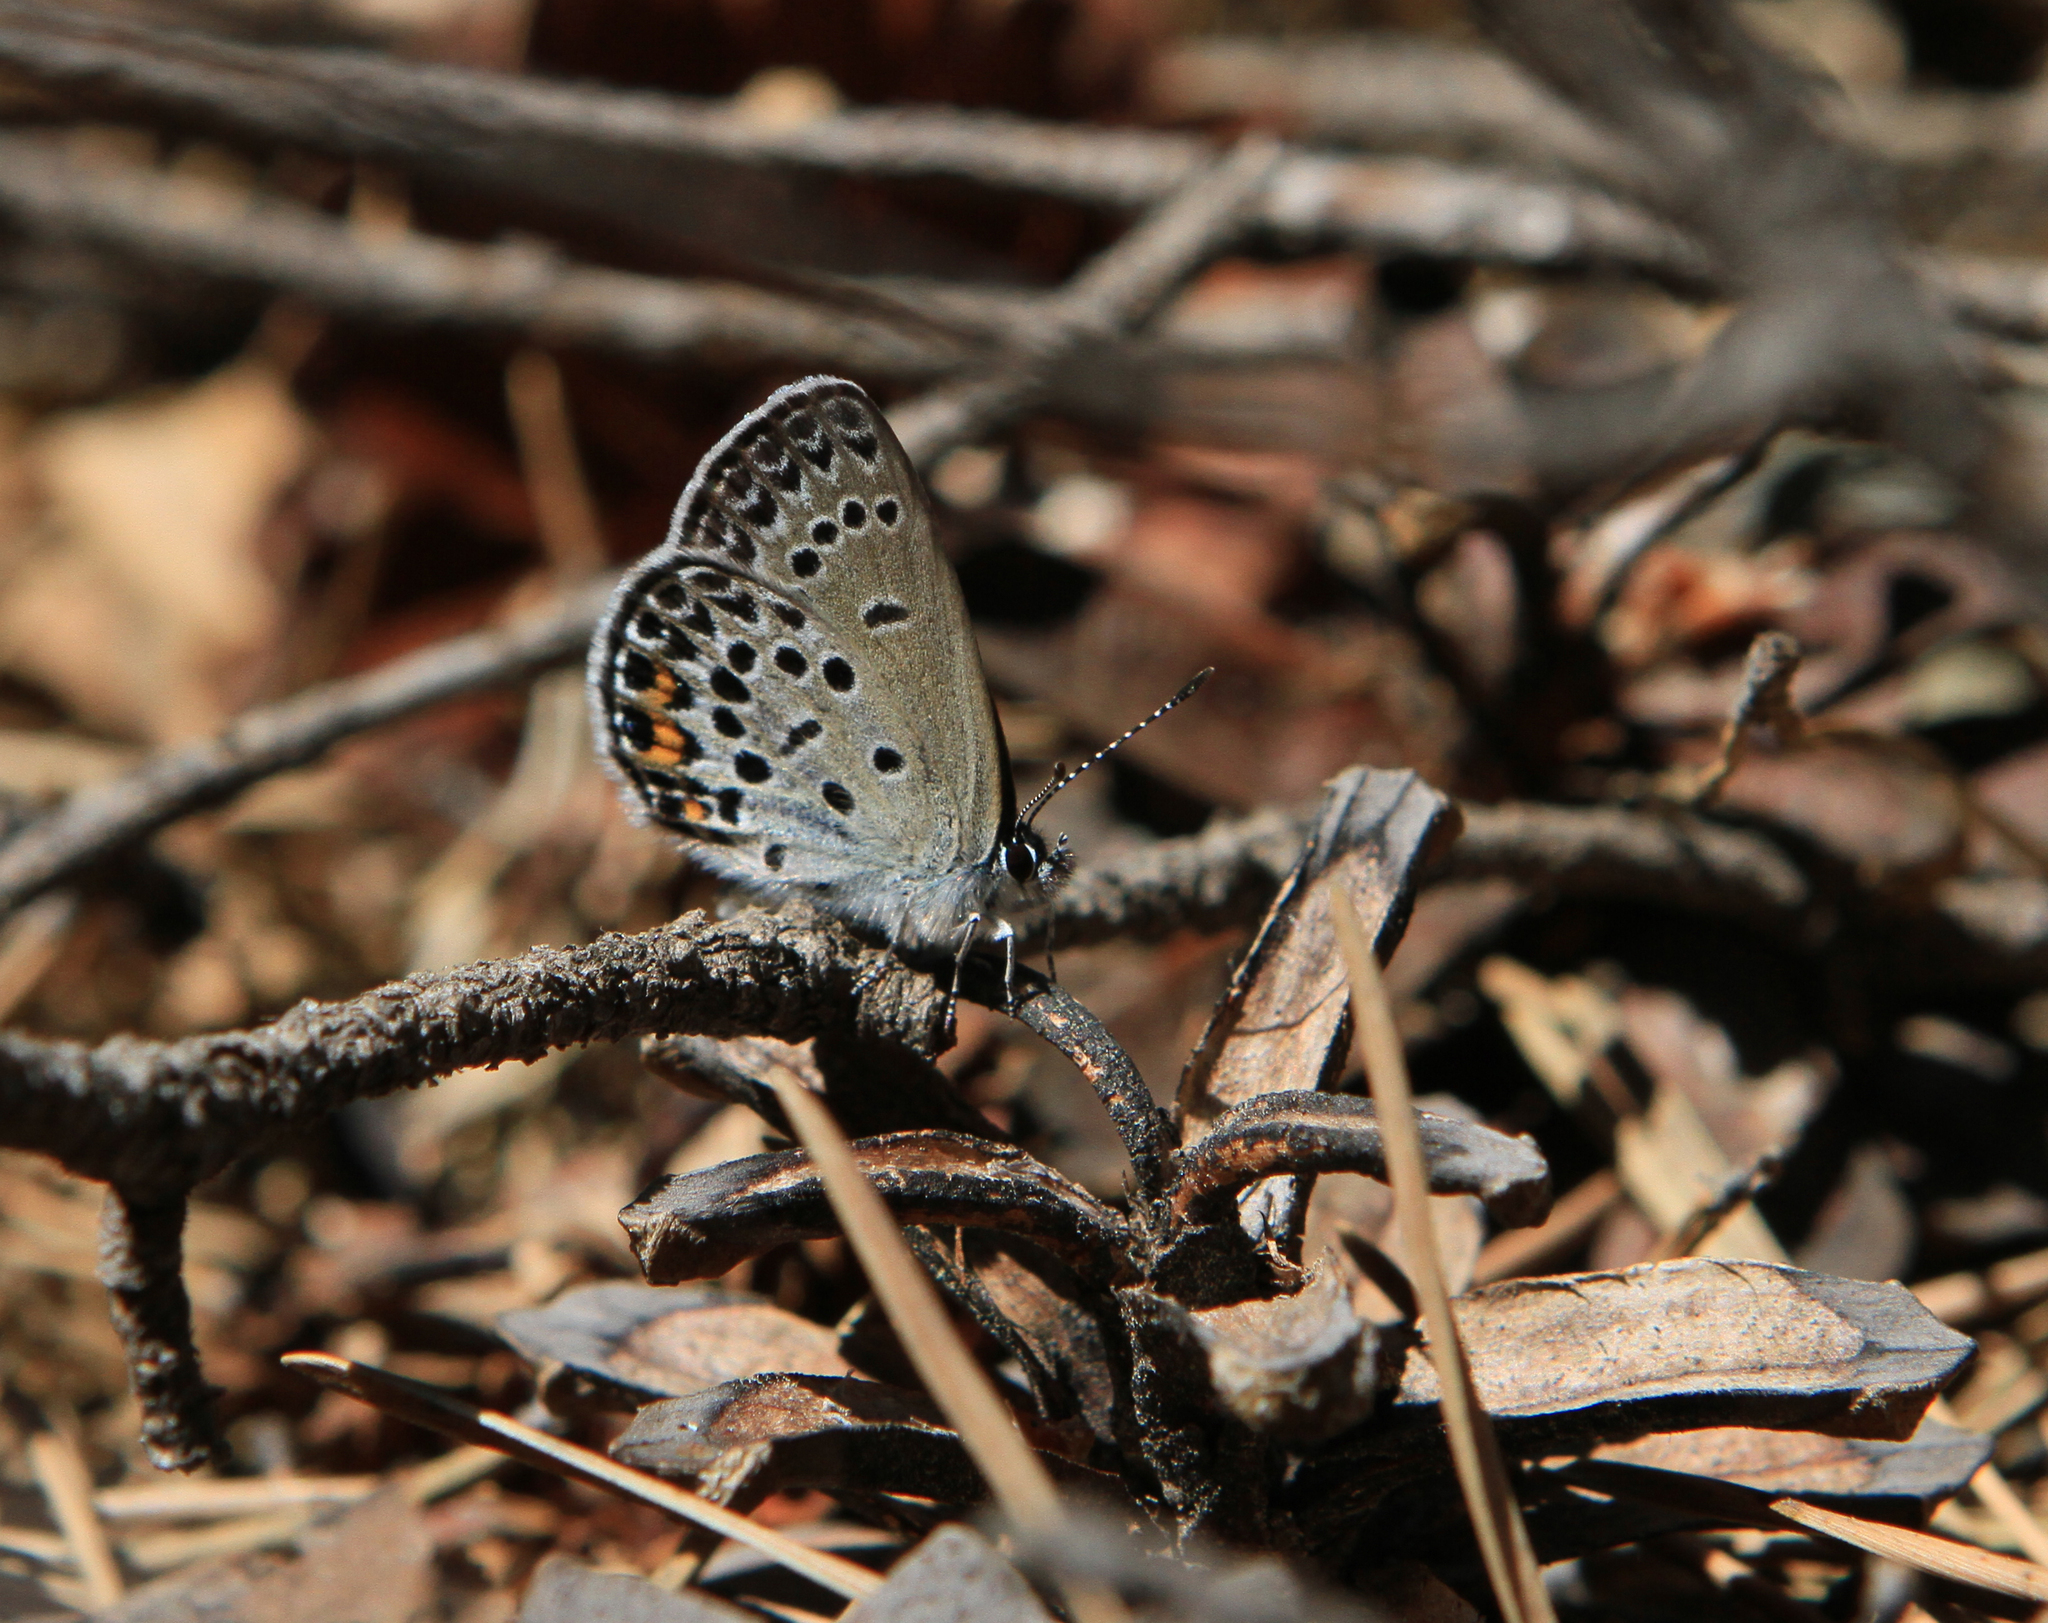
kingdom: Animalia
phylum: Arthropoda
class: Insecta
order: Lepidoptera
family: Lycaenidae
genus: Vacciniina
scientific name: Vacciniina optilete
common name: Cranberry blue
